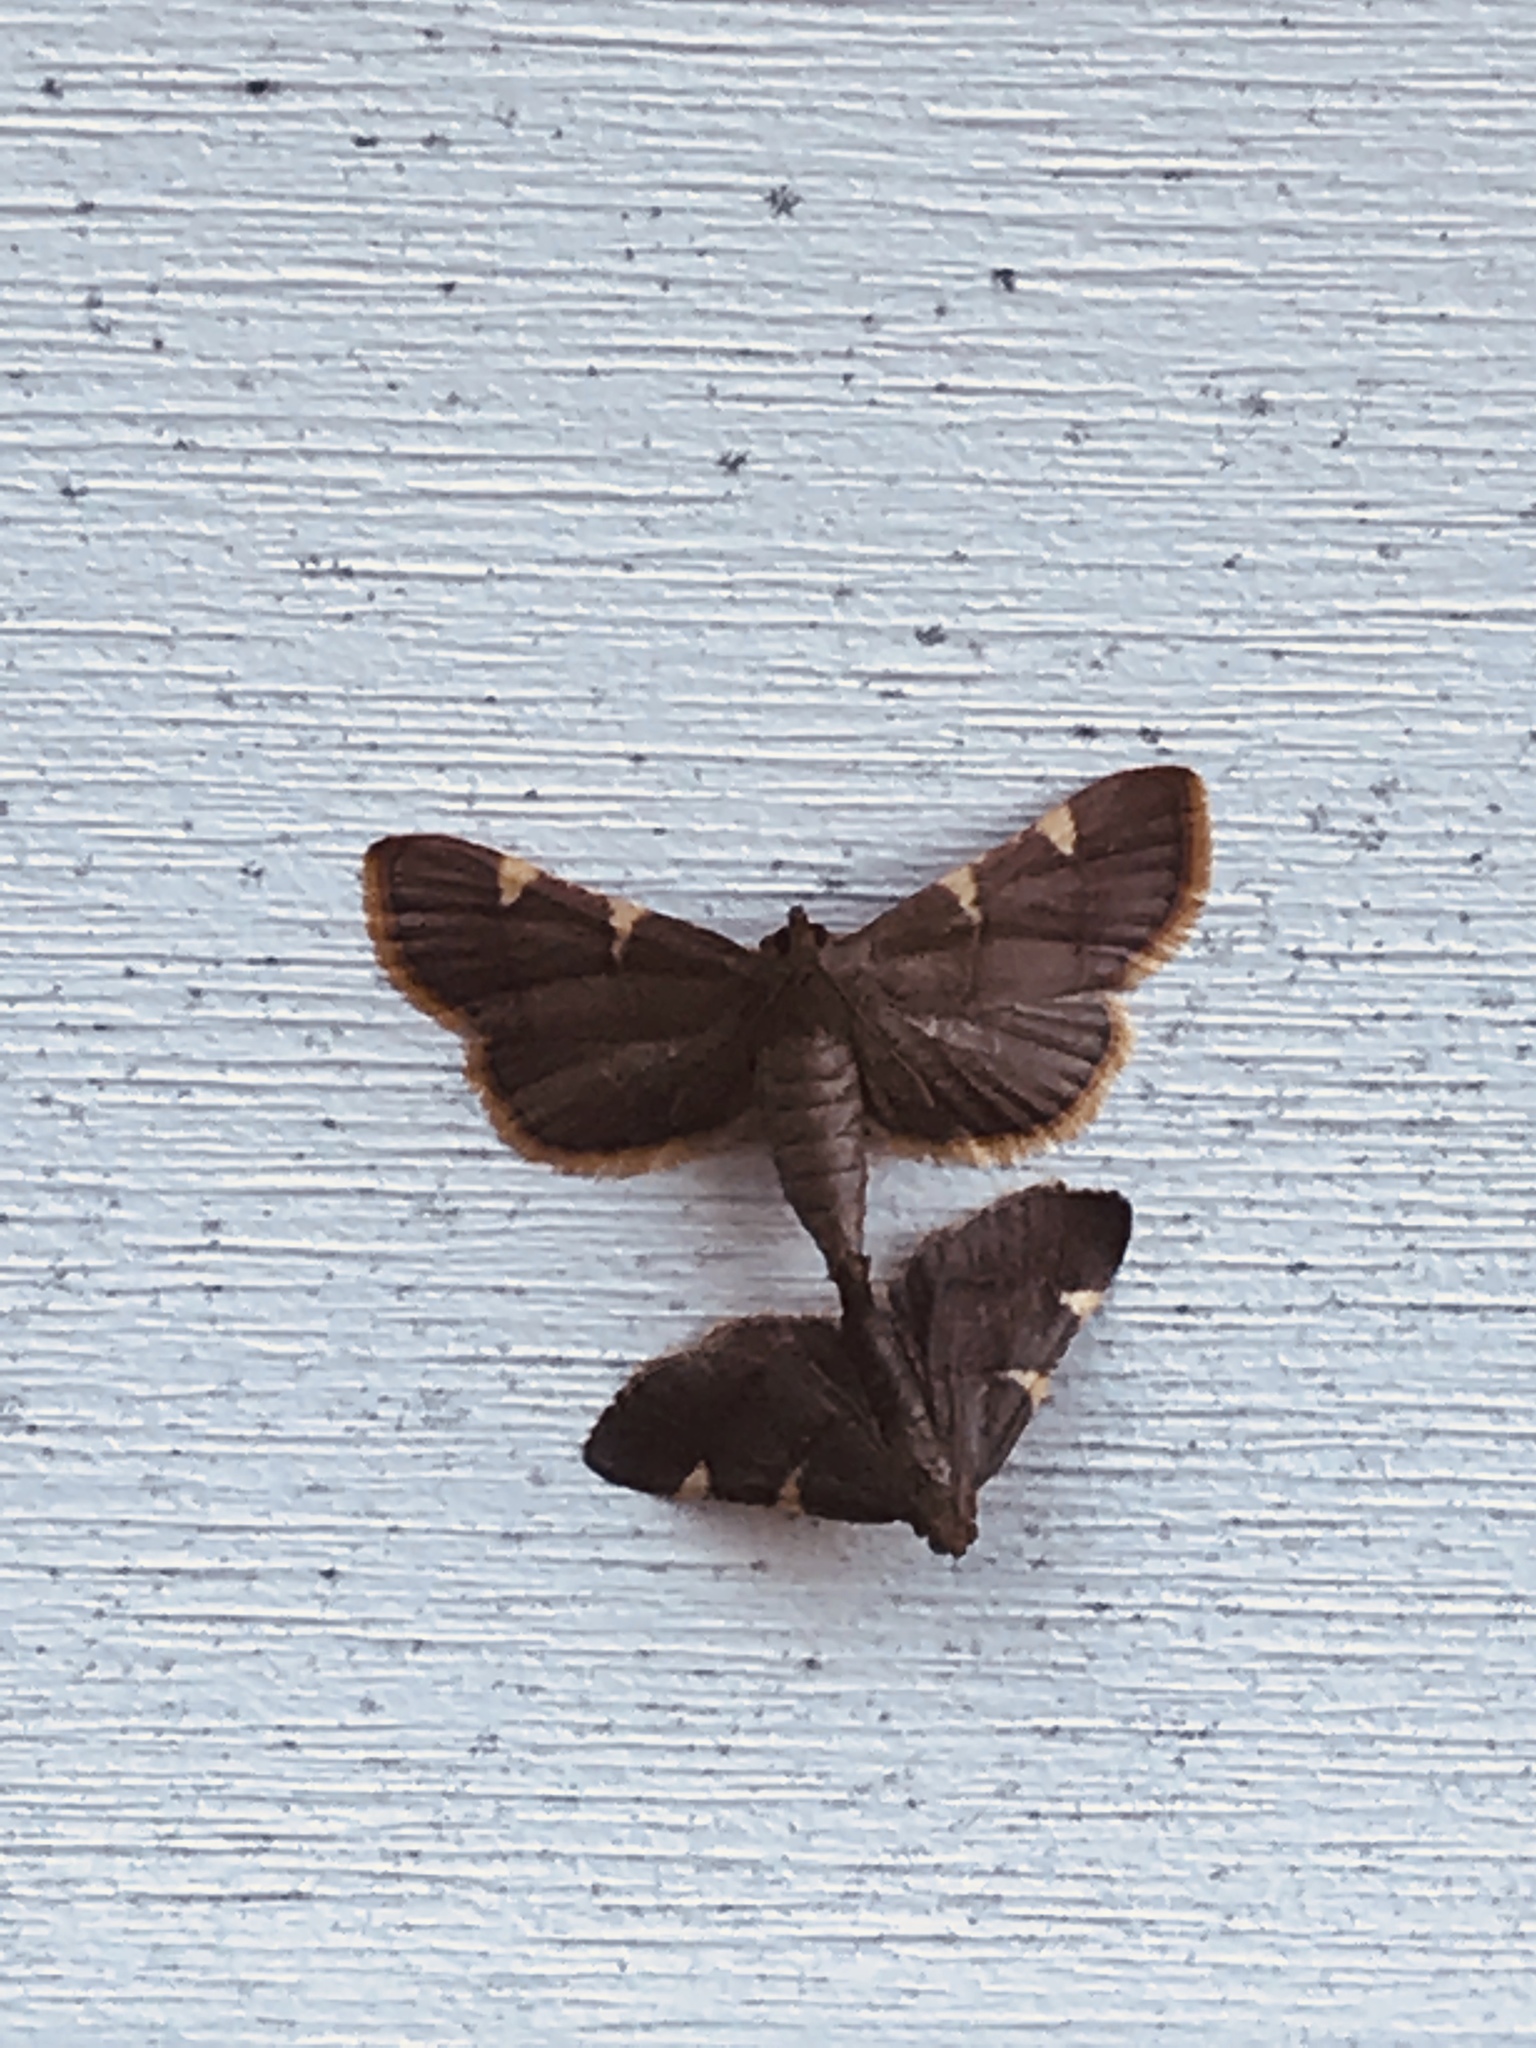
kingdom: Animalia
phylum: Arthropoda
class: Insecta
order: Lepidoptera
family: Pyralidae
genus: Hypsopygia
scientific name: Hypsopygia olinalis
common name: Yellow-fringed dolichomia moth
